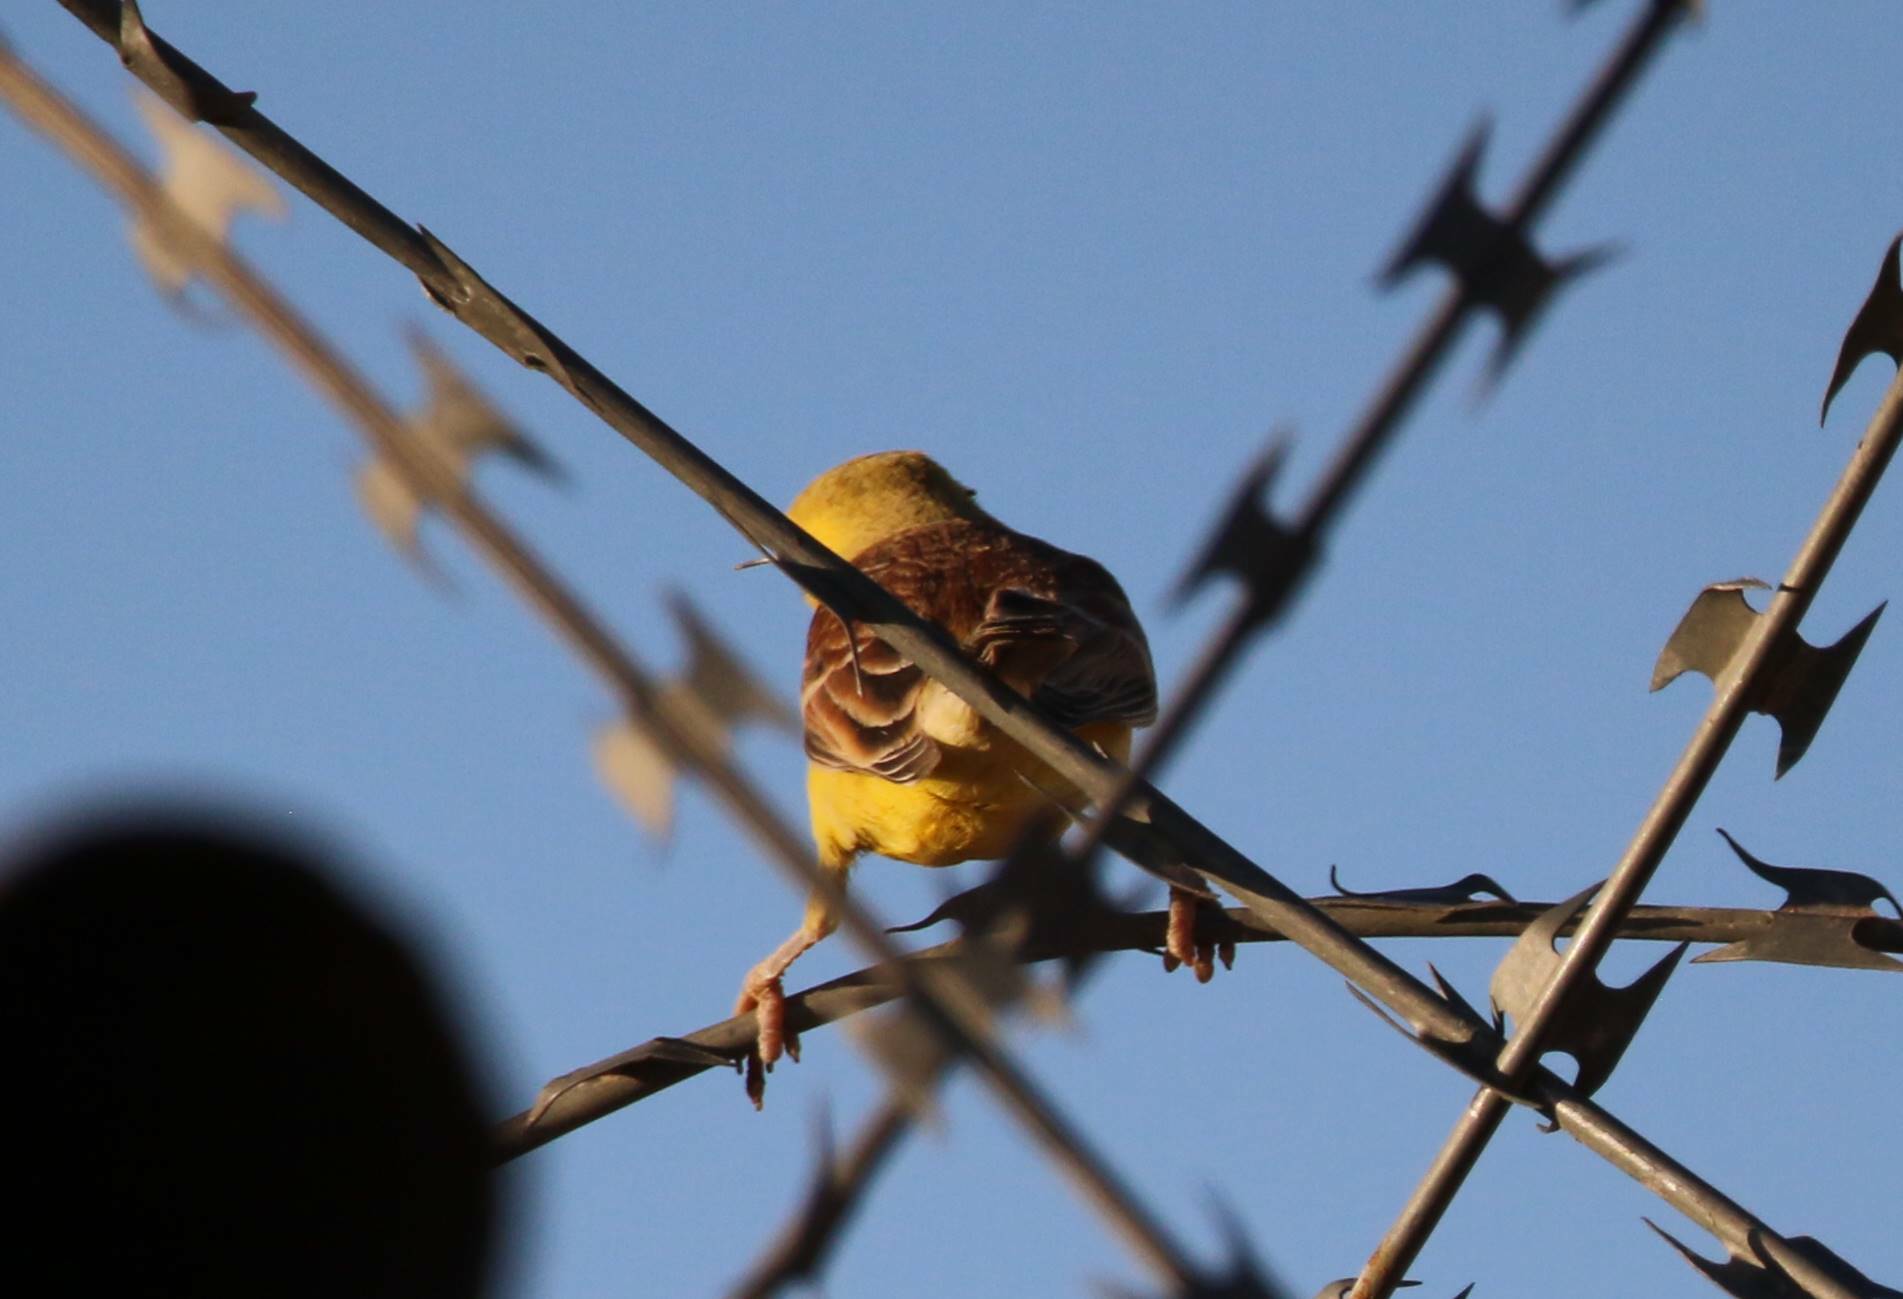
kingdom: Animalia
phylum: Chordata
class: Aves
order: Passeriformes
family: Passeridae
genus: Passer
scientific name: Passer luteus
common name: Sudan golden sparrow
